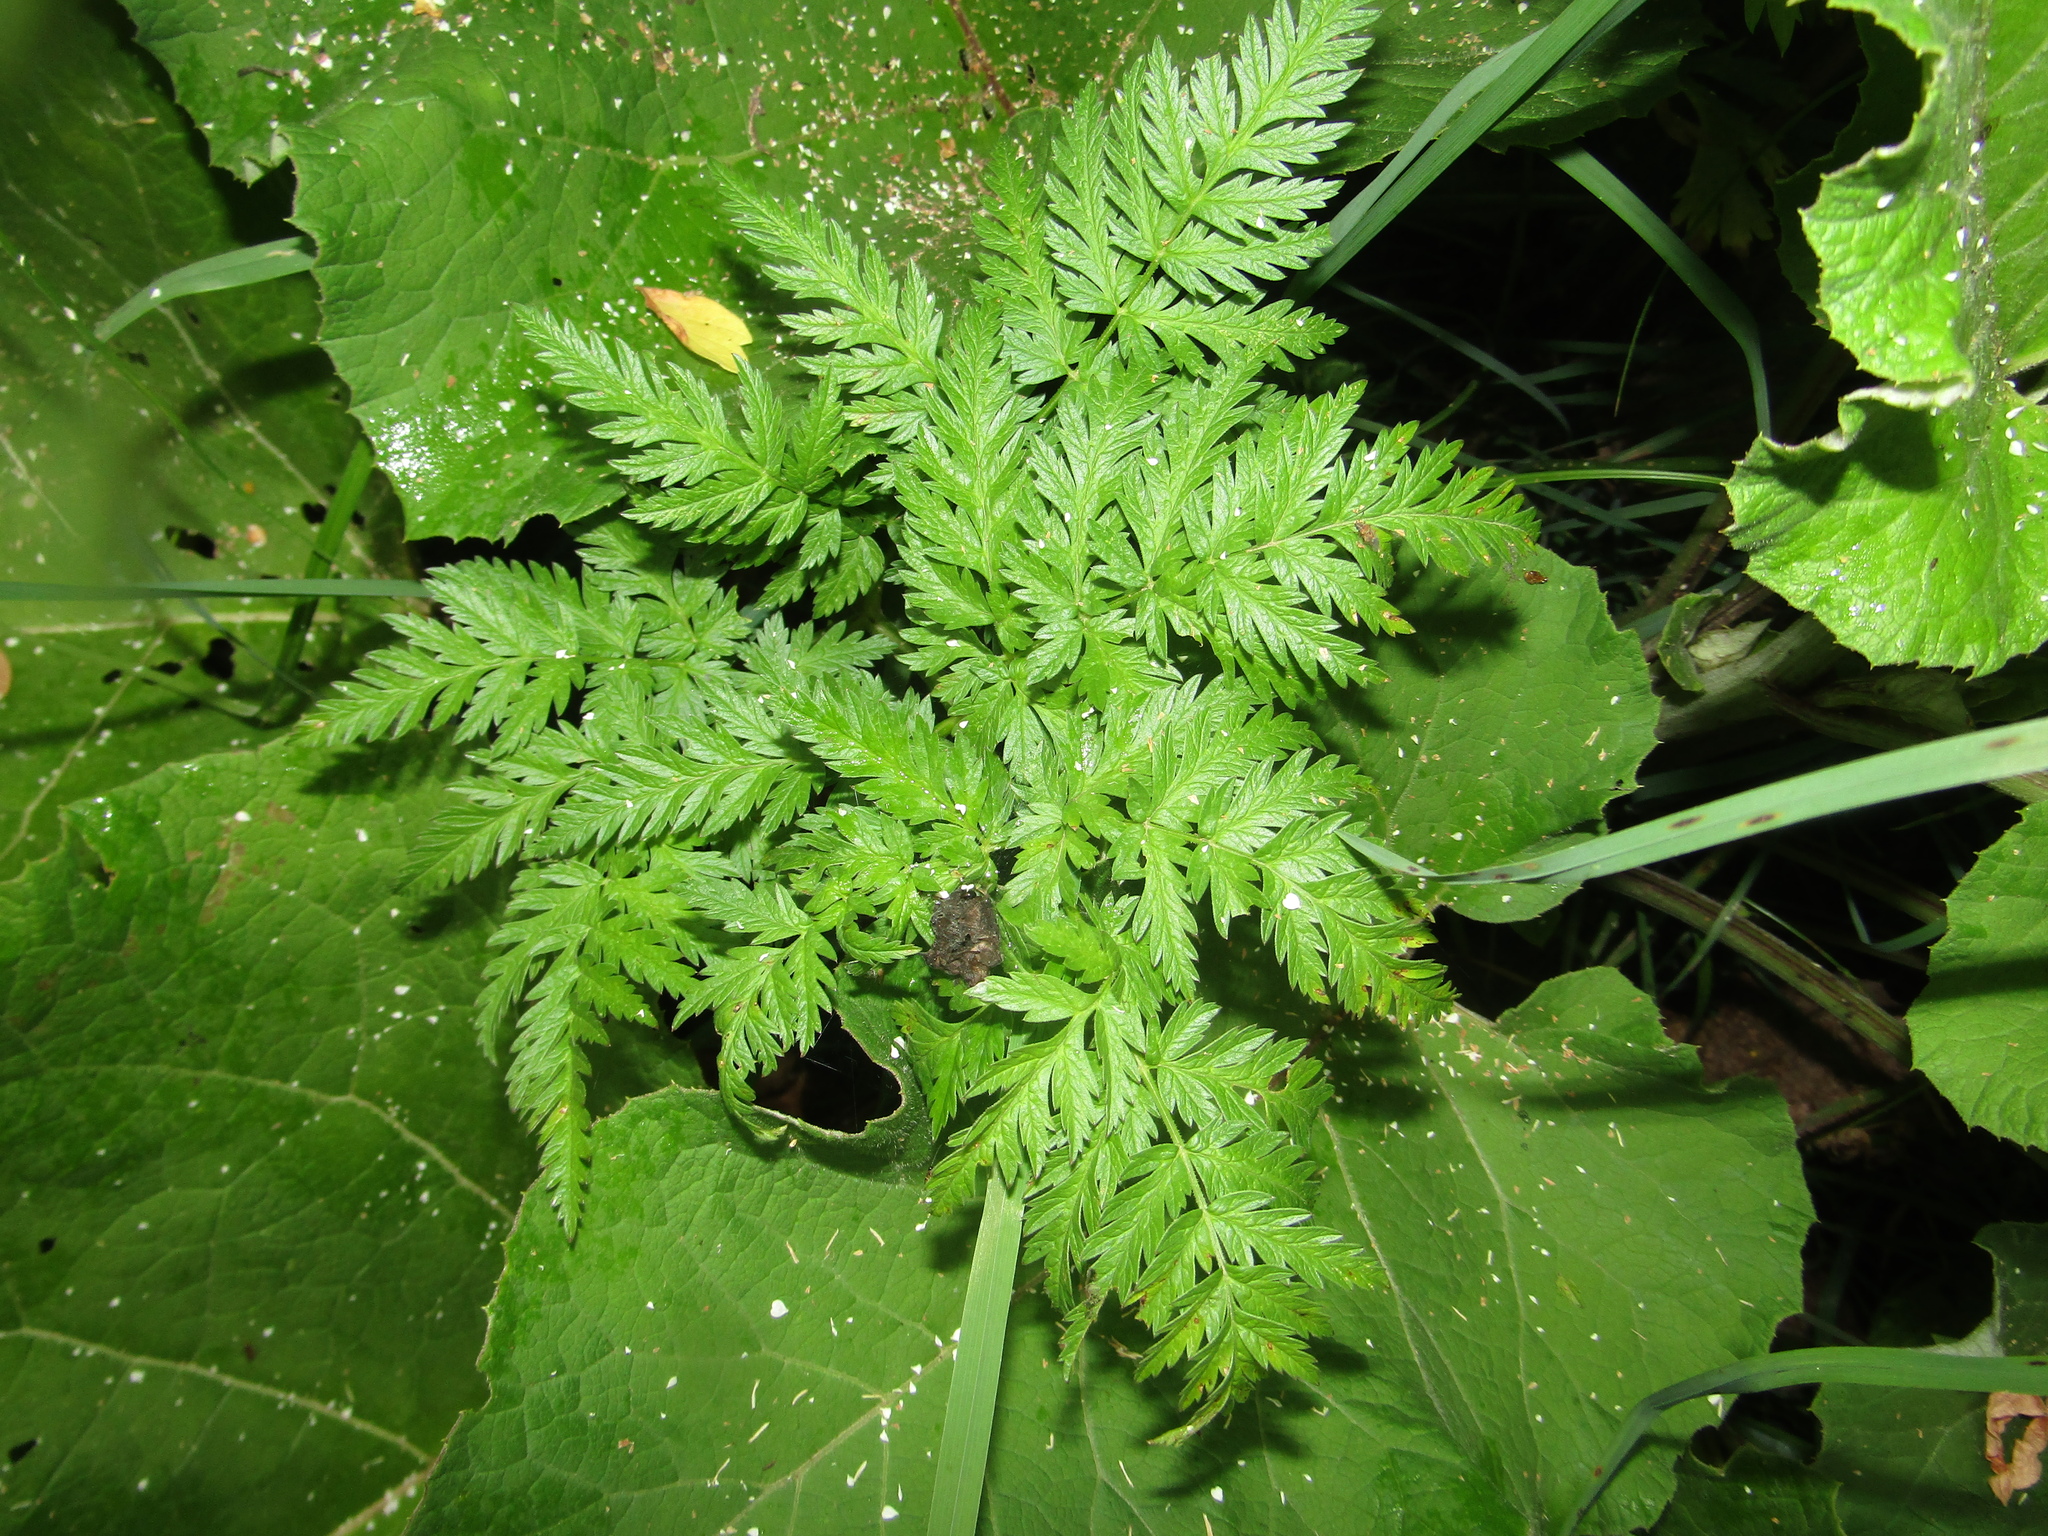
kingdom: Plantae
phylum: Tracheophyta
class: Magnoliopsida
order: Apiales
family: Apiaceae
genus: Anthriscus
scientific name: Anthriscus sylvestris
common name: Cow parsley
